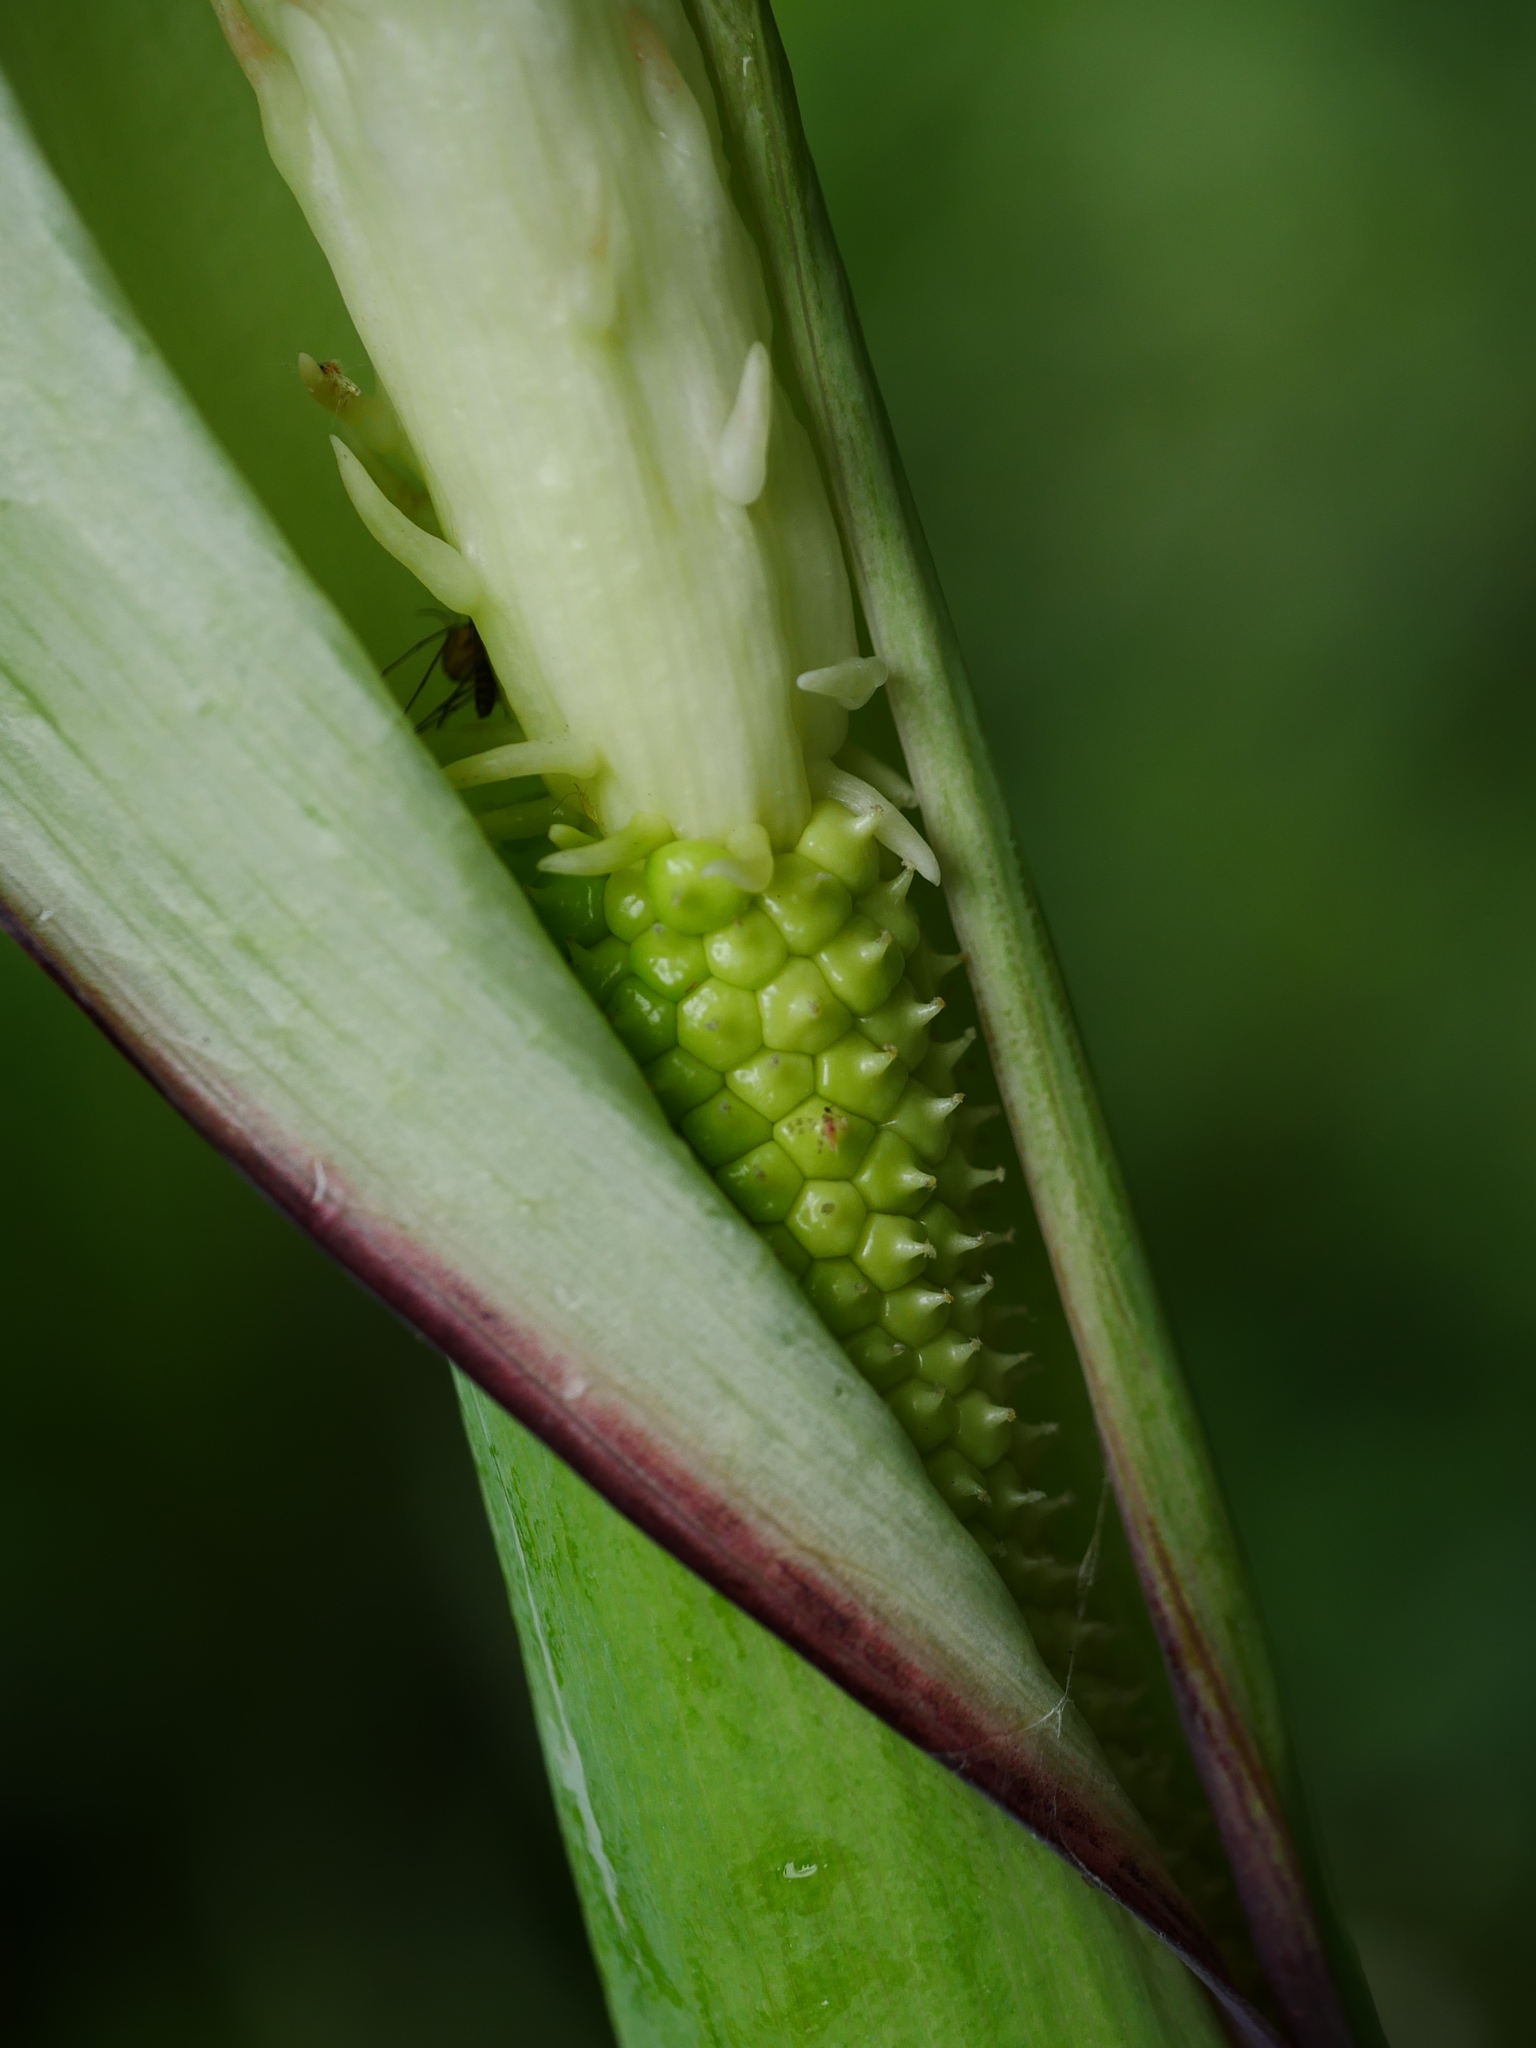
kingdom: Plantae
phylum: Tracheophyta
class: Liliopsida
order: Alismatales
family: Araceae
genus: Arisaema
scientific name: Arisaema heterophyllum
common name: Dancing crane cobra lily
